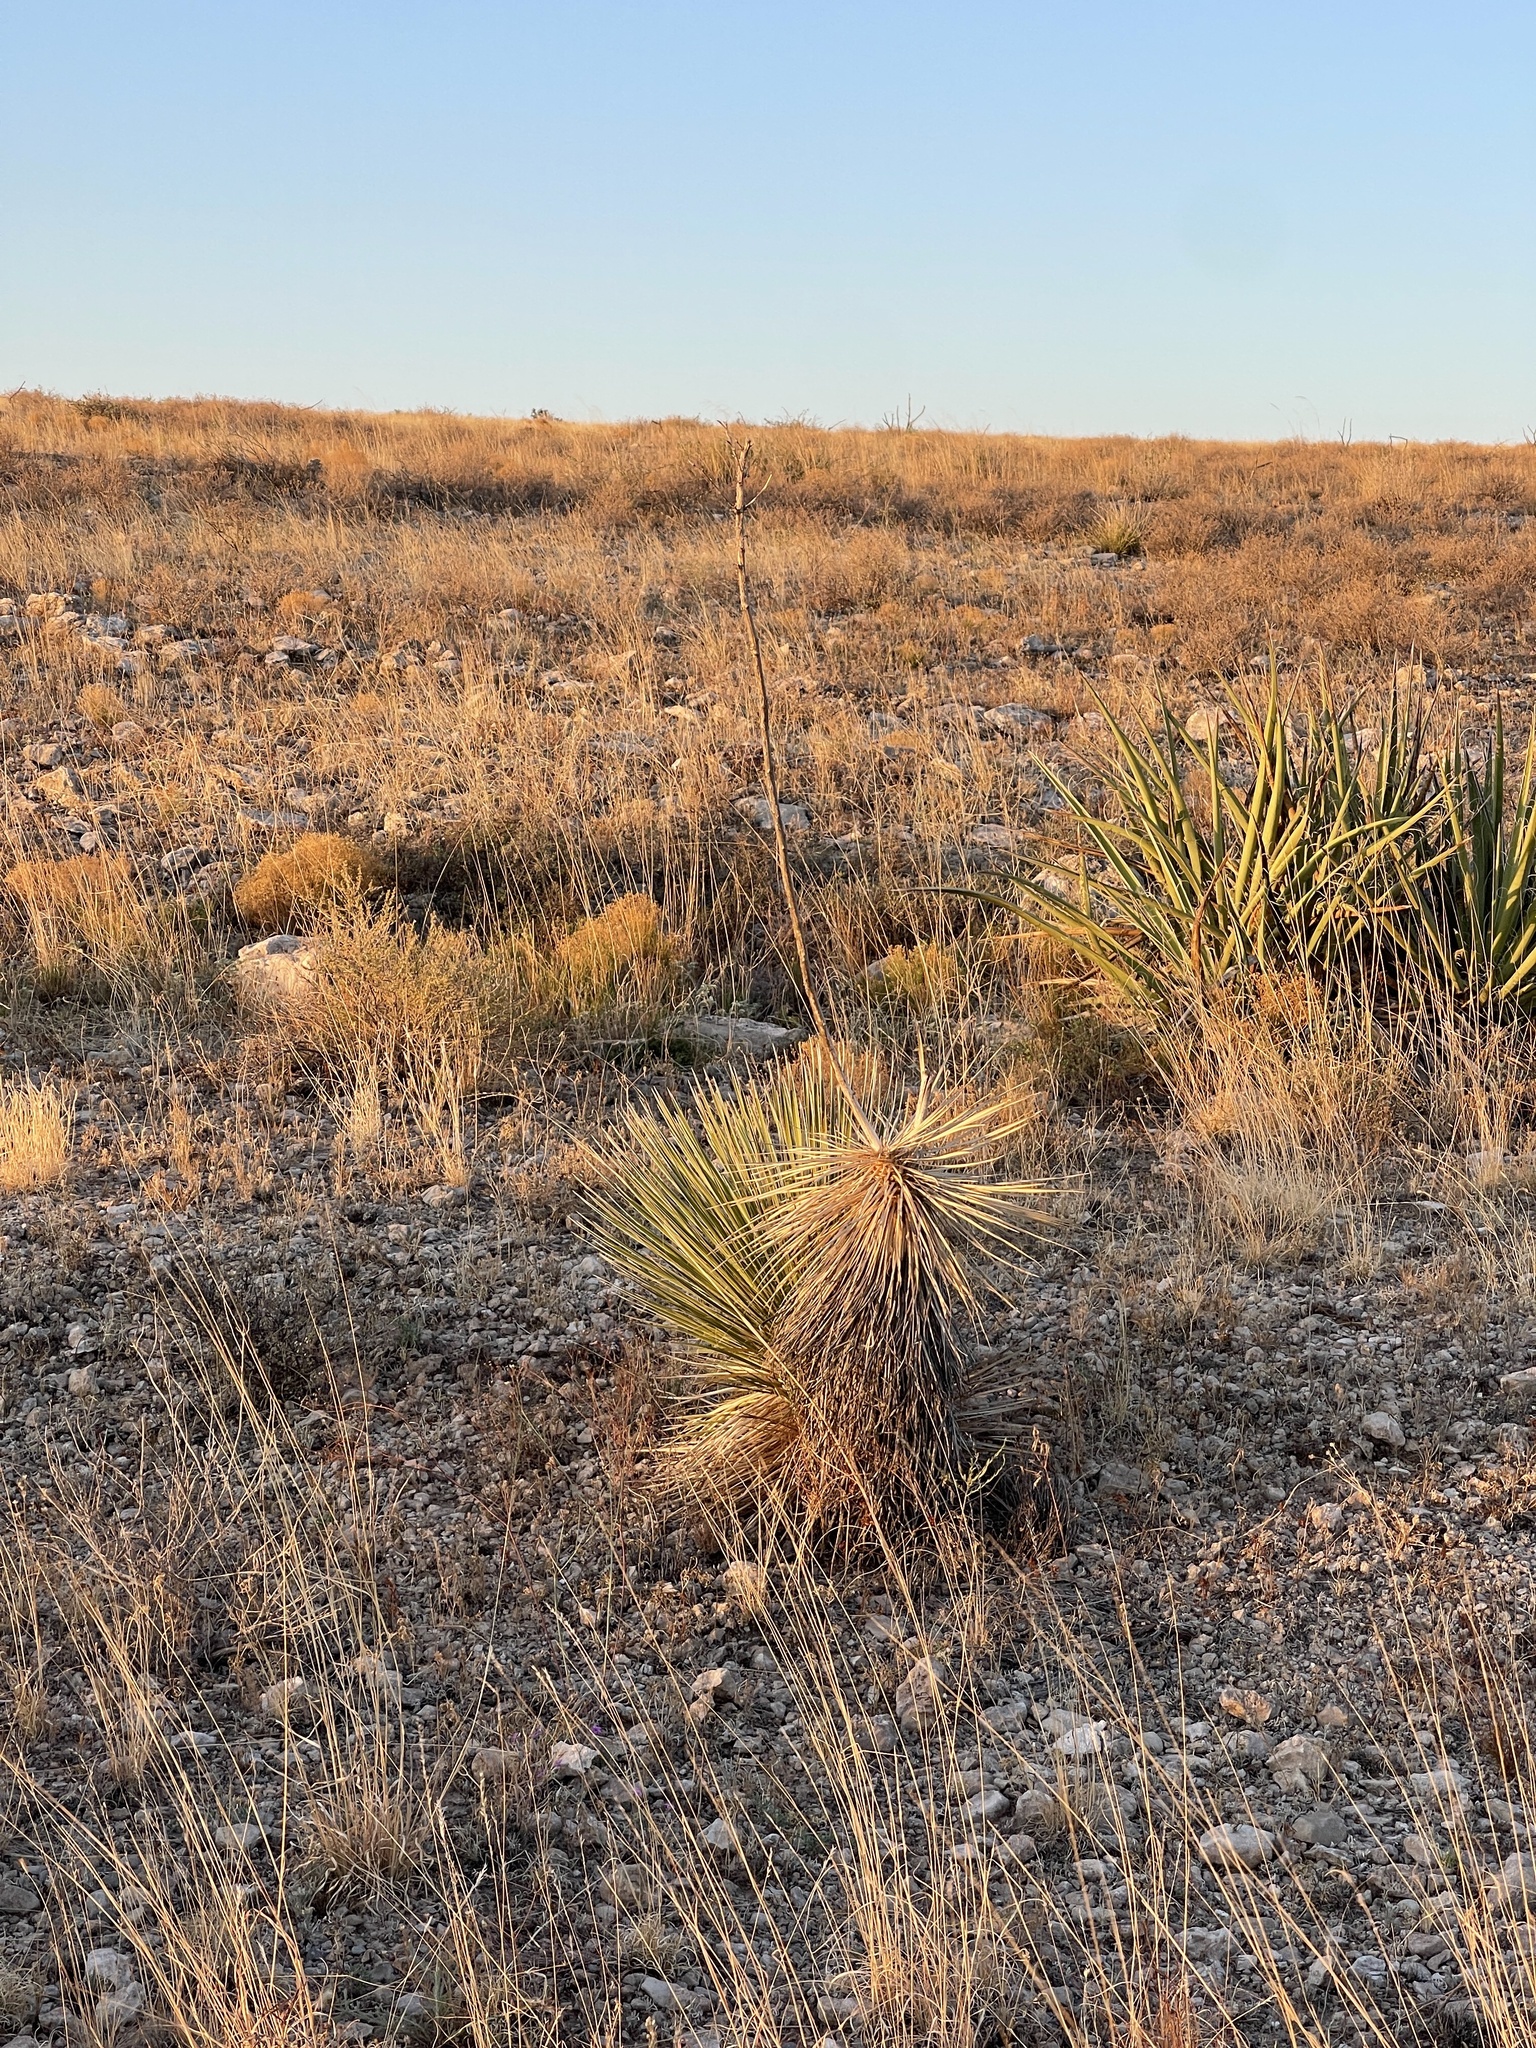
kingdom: Plantae
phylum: Tracheophyta
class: Liliopsida
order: Asparagales
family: Asparagaceae
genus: Yucca
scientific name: Yucca elata
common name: Palmella
